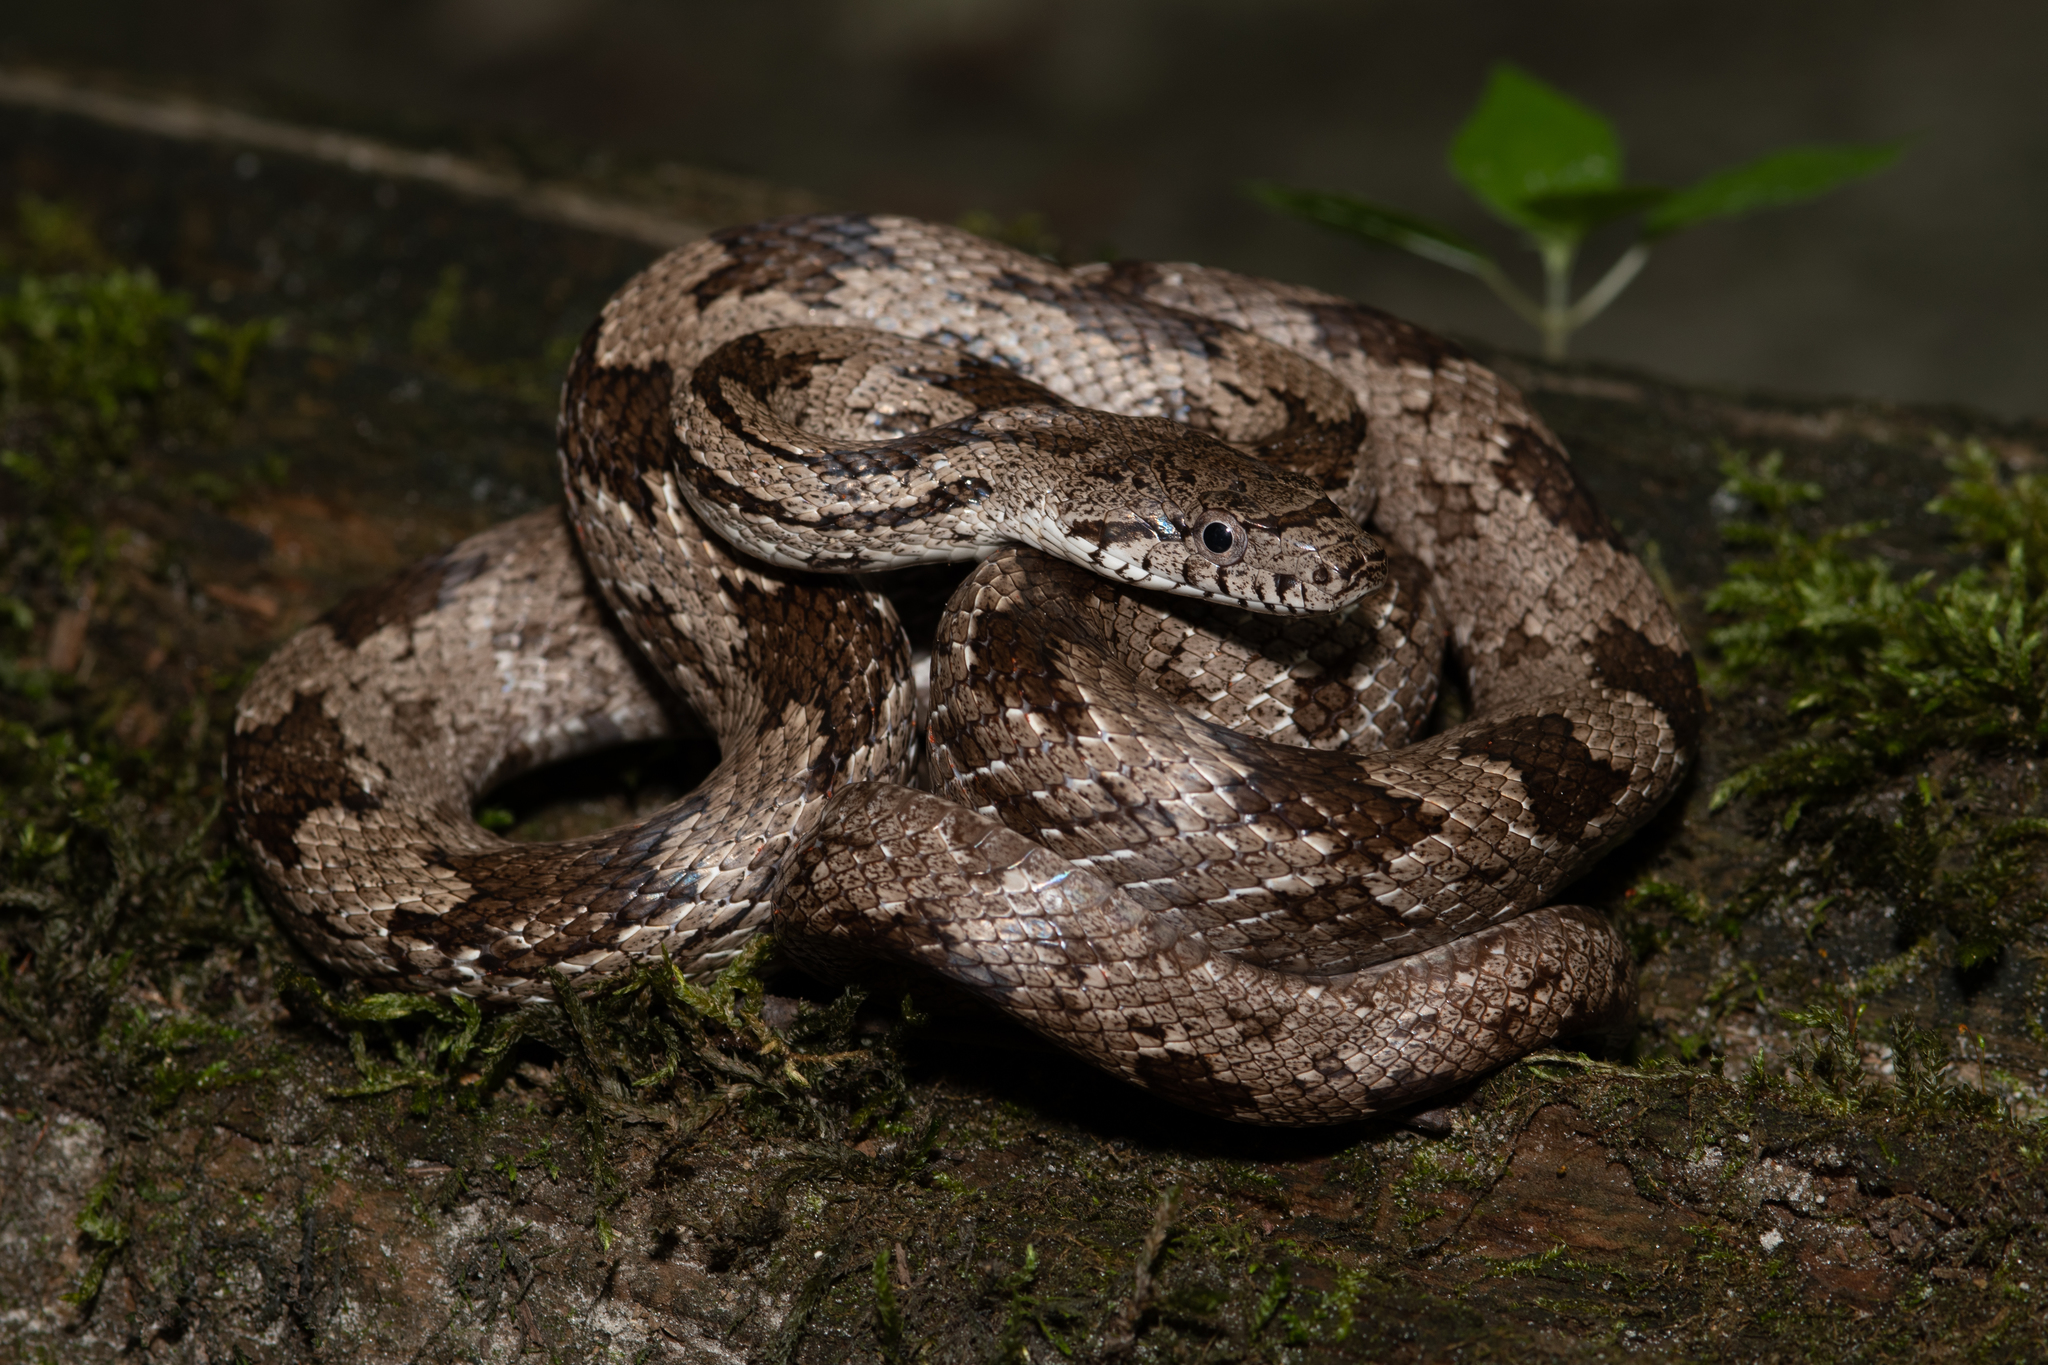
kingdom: Animalia
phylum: Chordata
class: Squamata
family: Colubridae
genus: Pantherophis
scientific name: Pantherophis spiloides
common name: Gray rat snake
